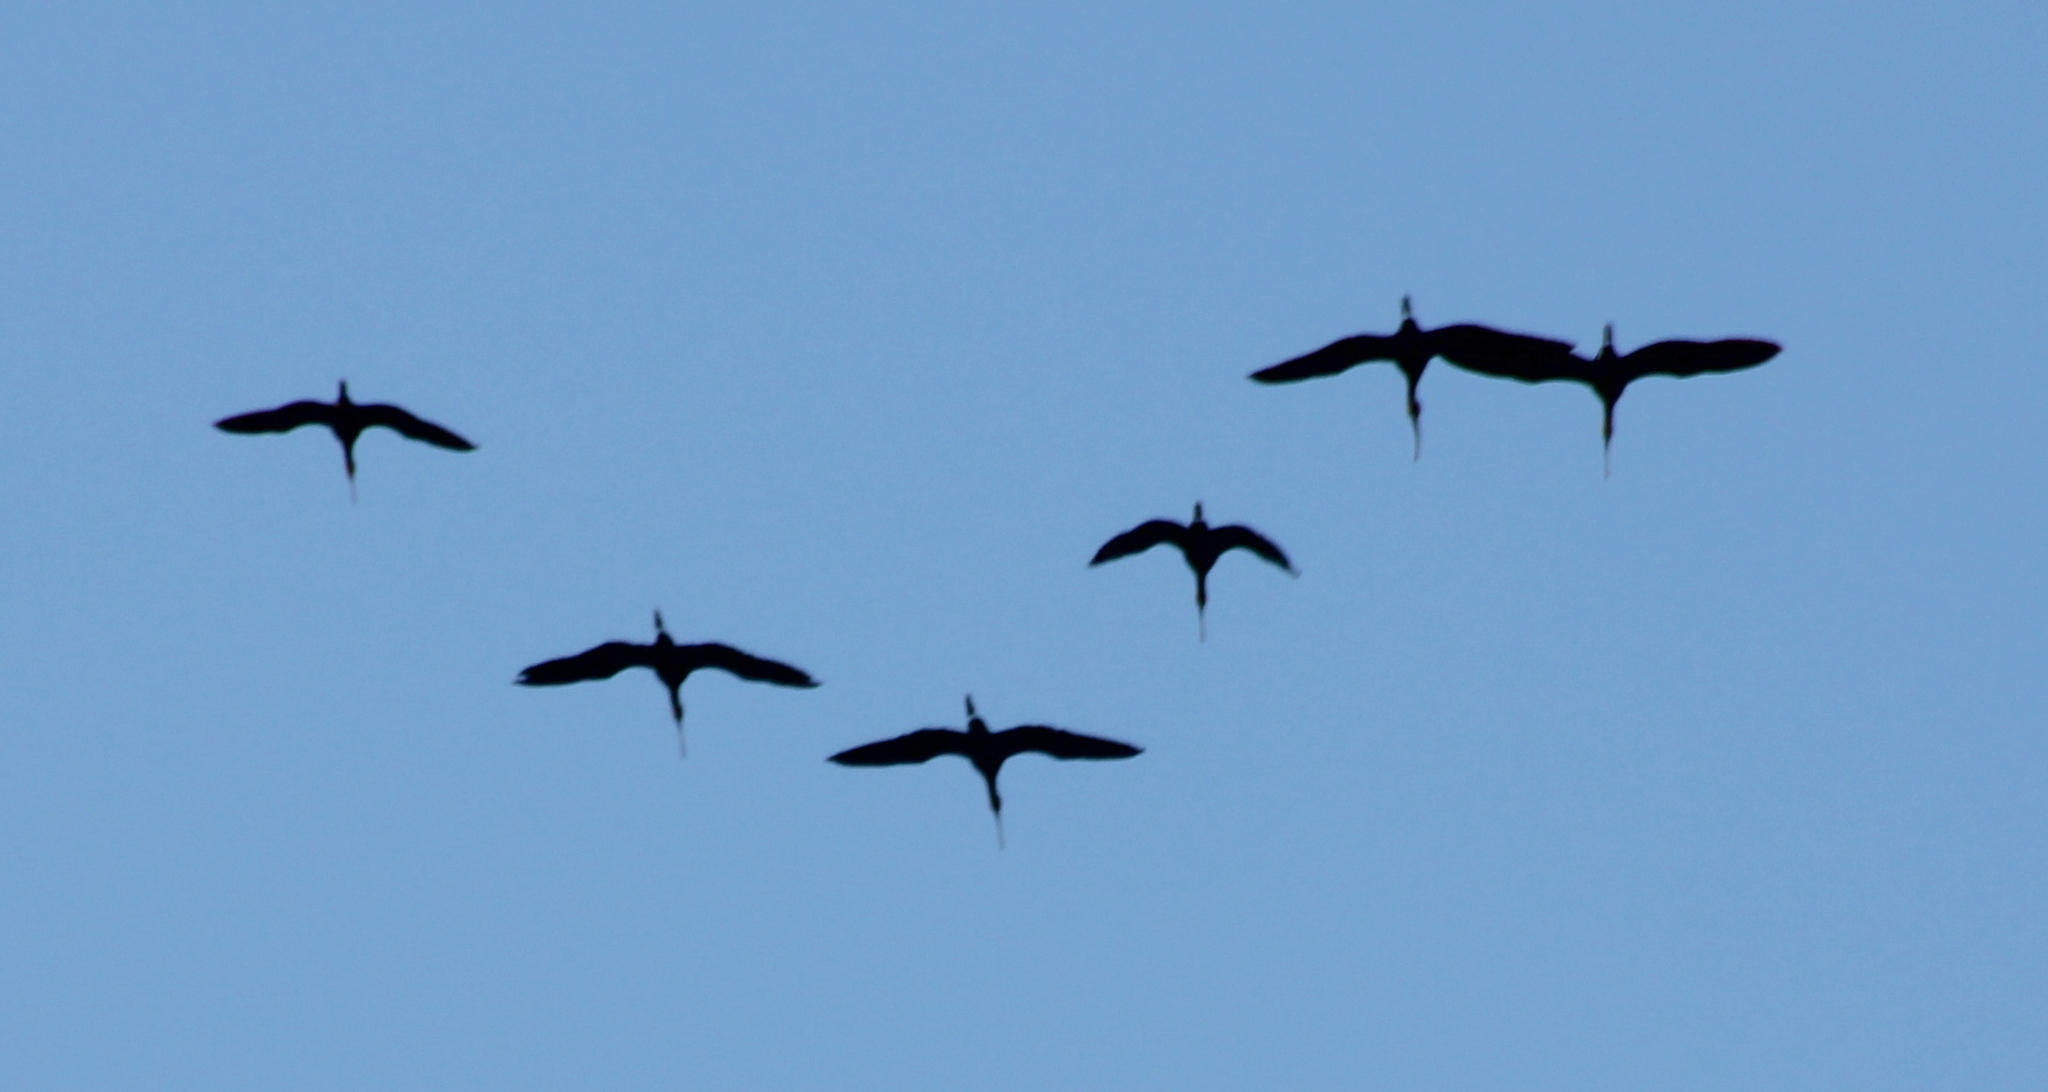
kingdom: Animalia
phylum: Chordata
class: Aves
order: Pelecaniformes
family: Threskiornithidae
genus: Plegadis
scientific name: Plegadis chihi
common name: White-faced ibis
